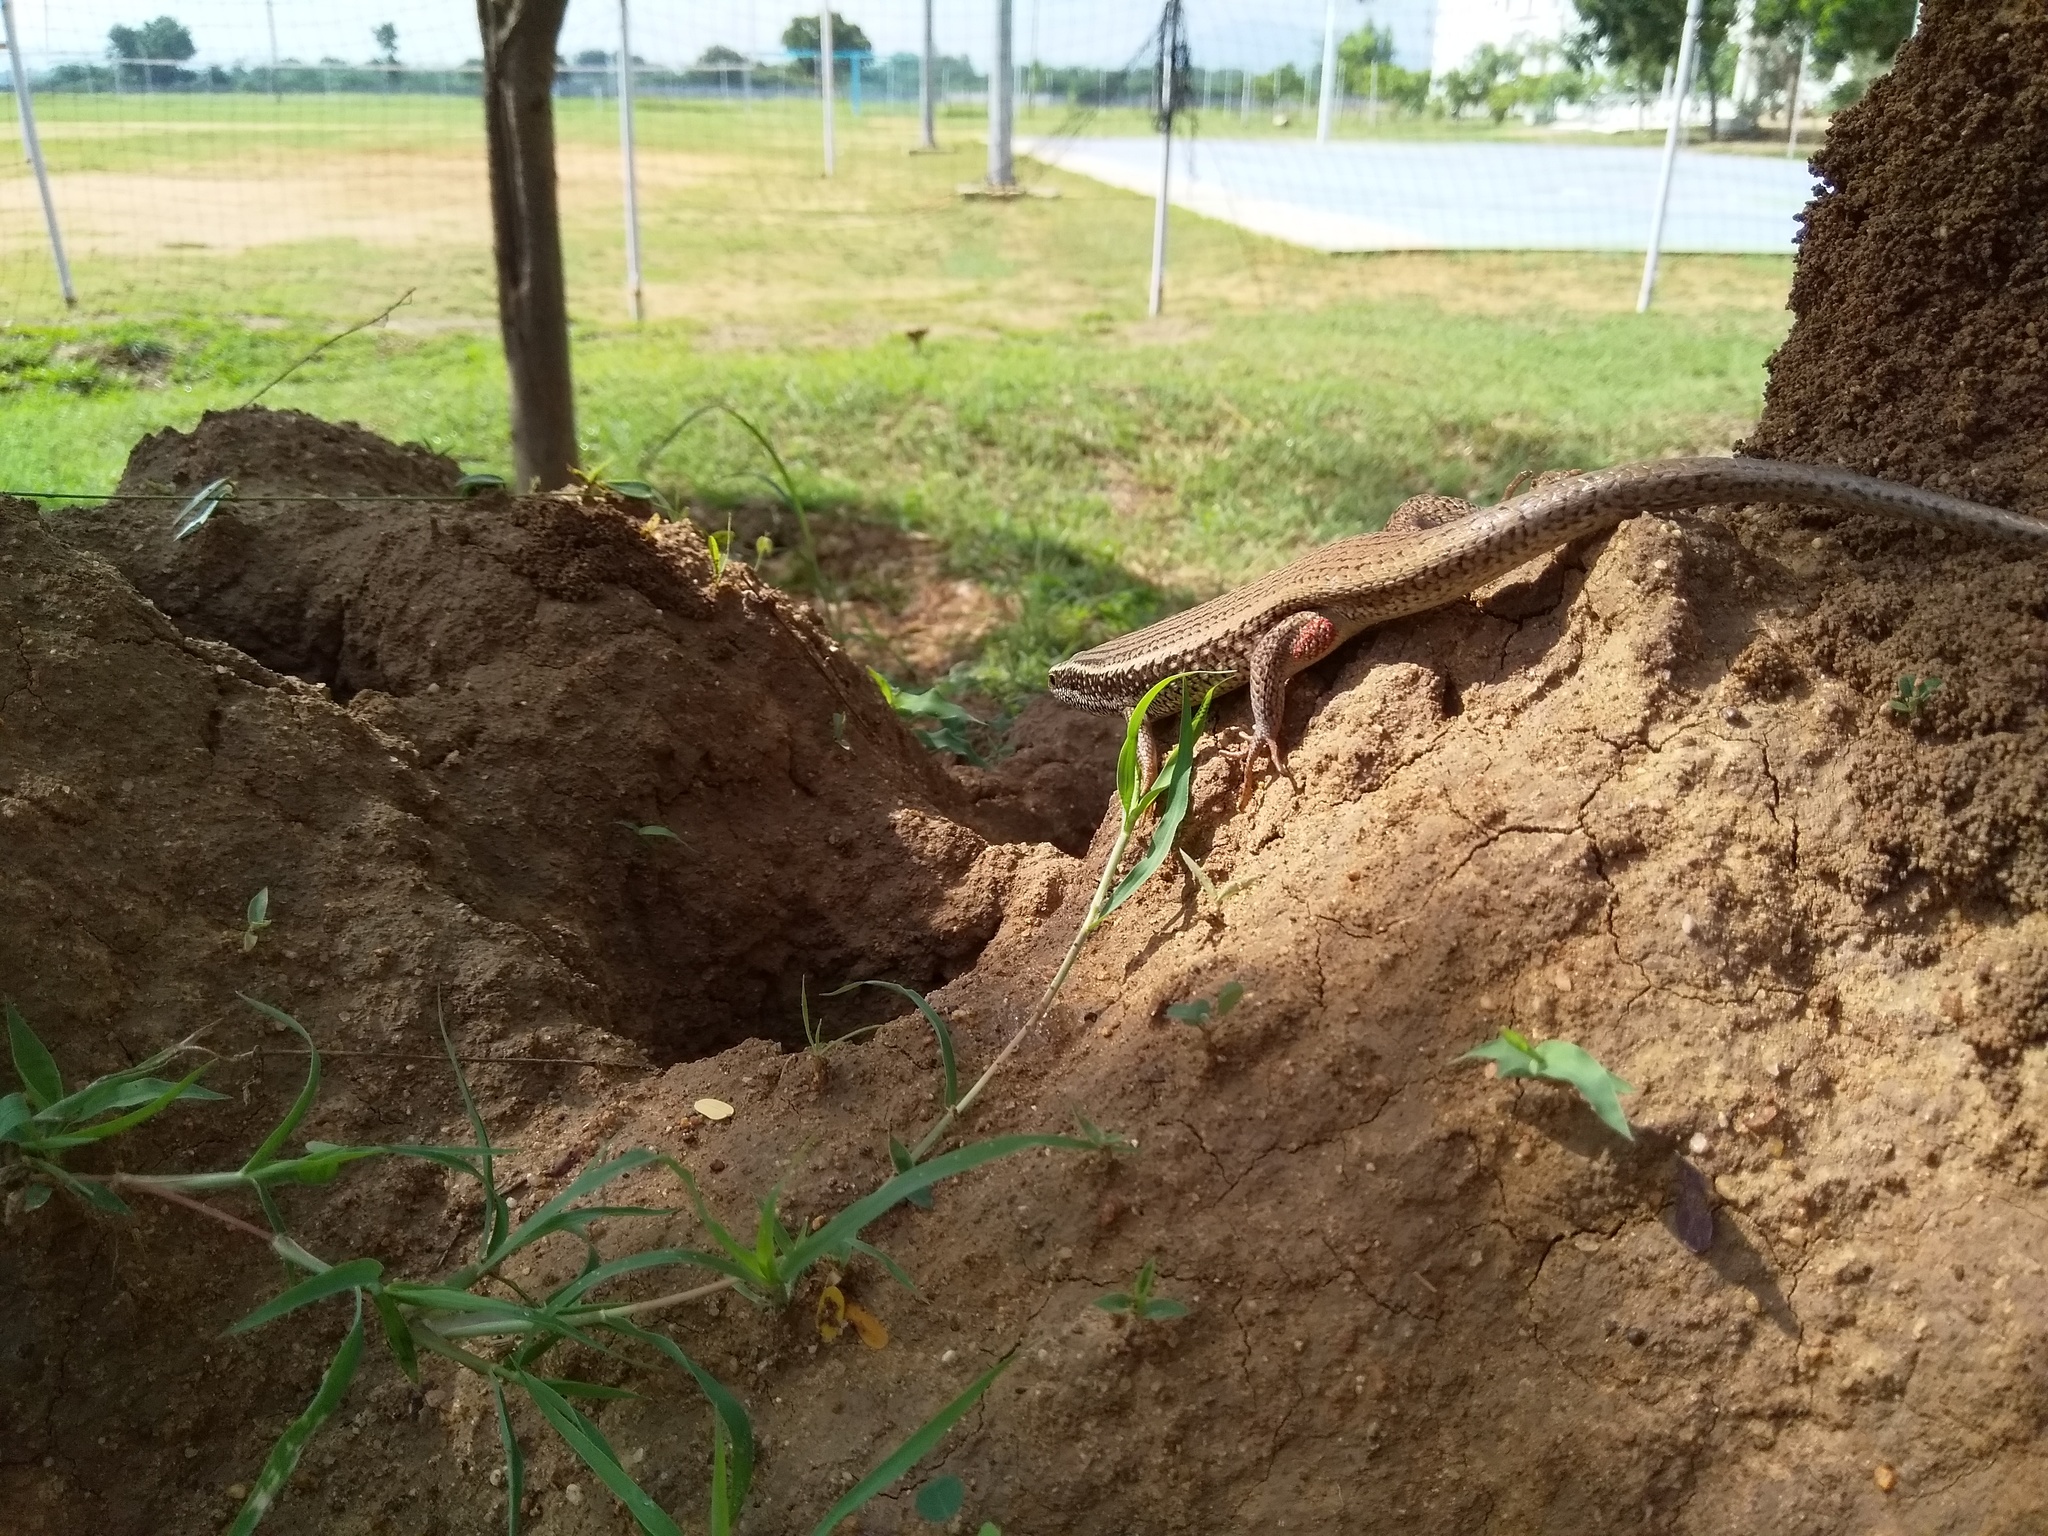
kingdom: Animalia
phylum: Chordata
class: Squamata
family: Scincidae
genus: Eutropis
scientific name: Eutropis carinata
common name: Keeled indian mabuya
